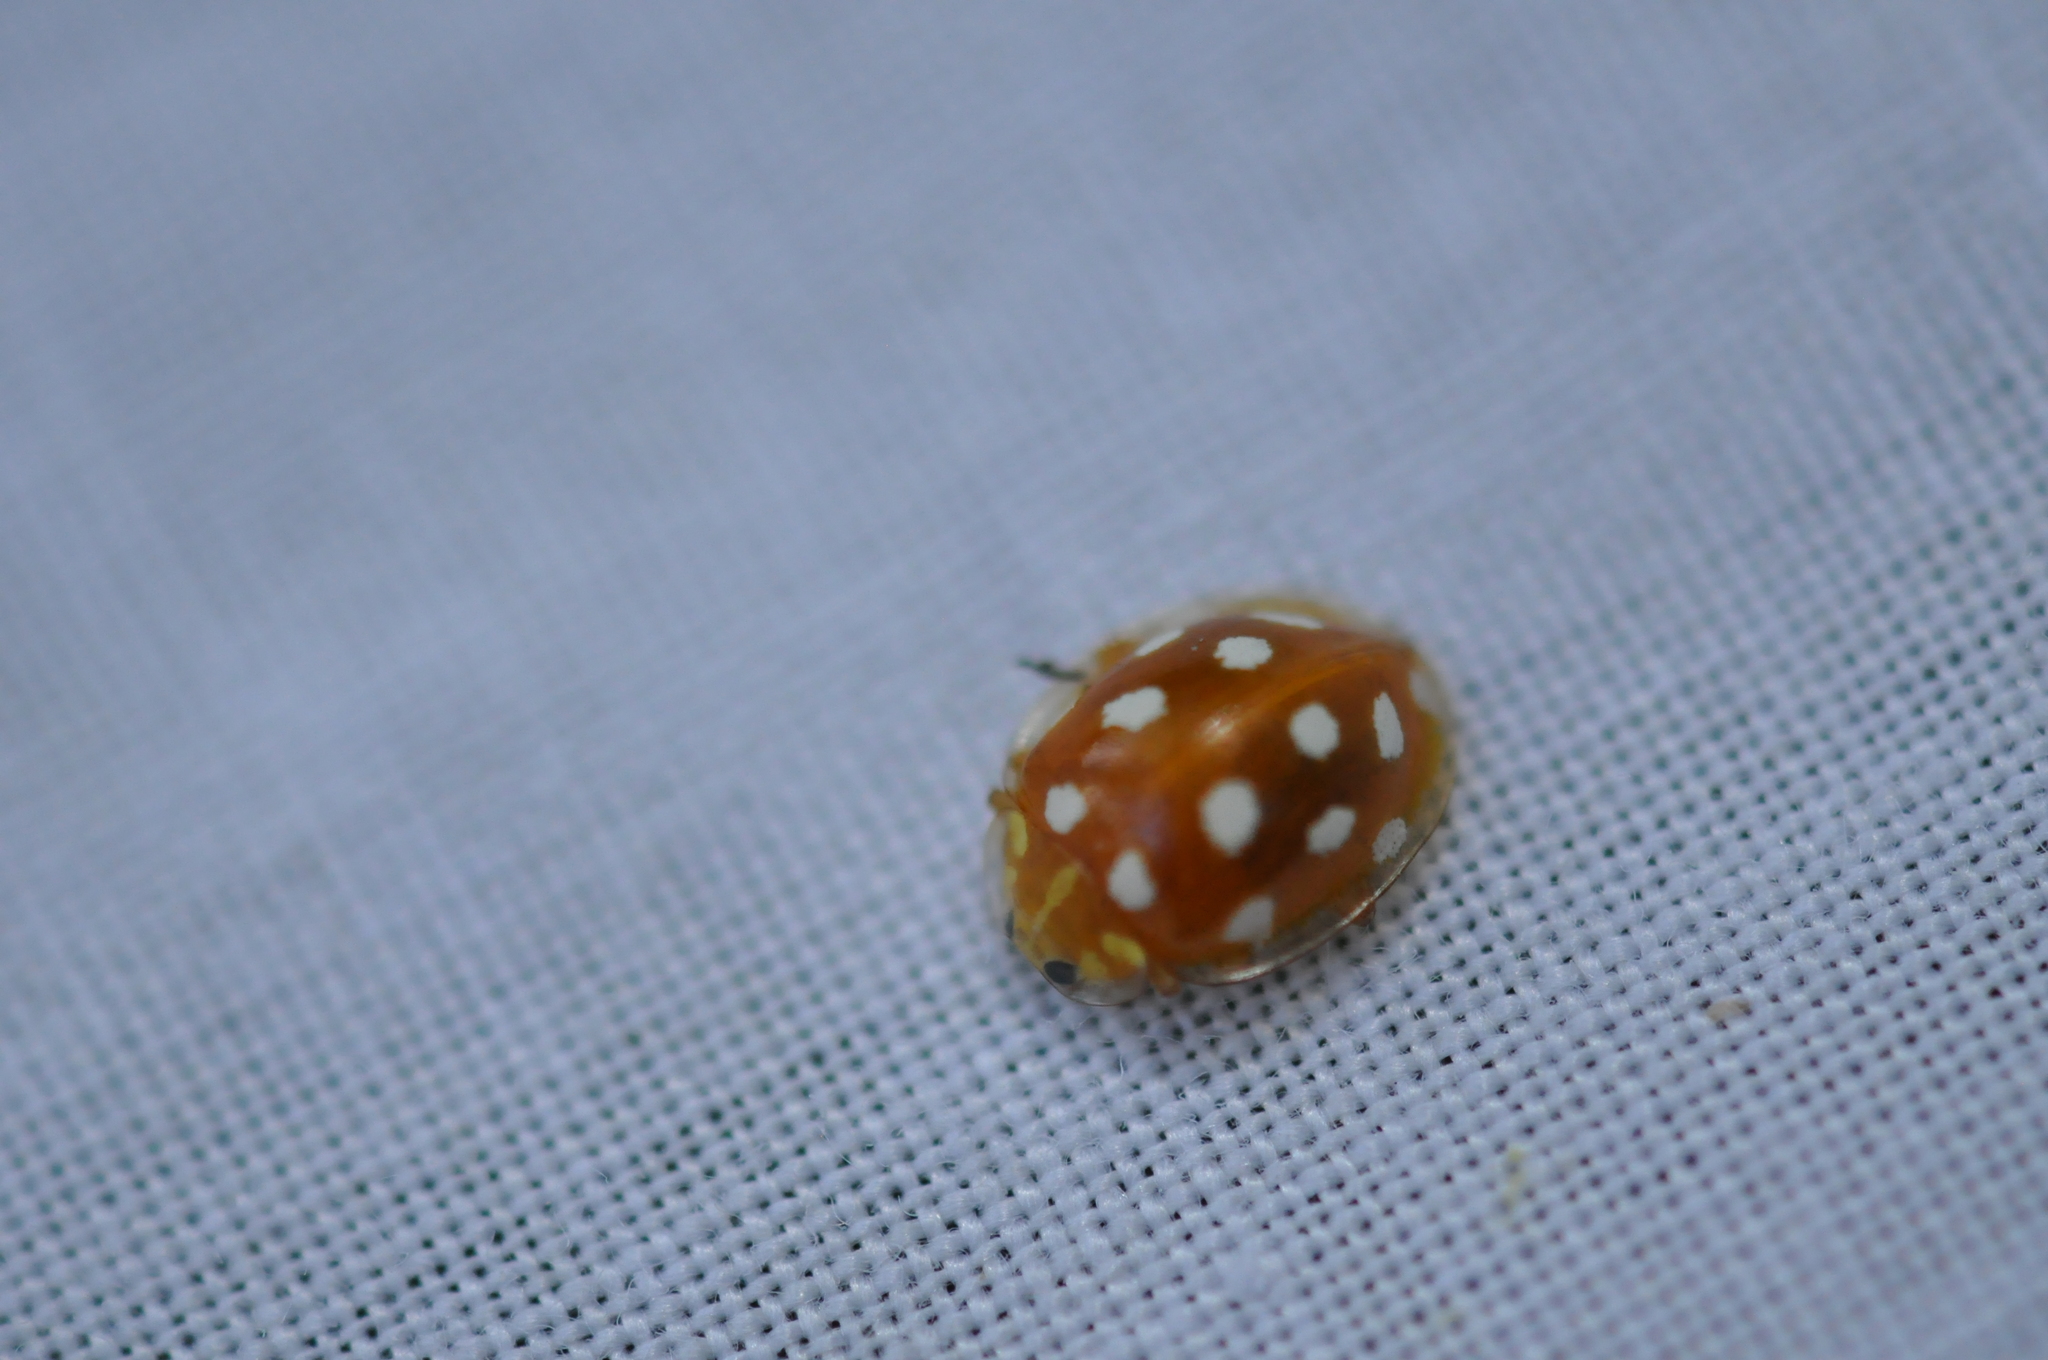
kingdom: Animalia
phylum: Arthropoda
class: Insecta
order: Coleoptera
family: Coccinellidae
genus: Halyzia
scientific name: Halyzia sedecimguttata
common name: Orange ladybird
